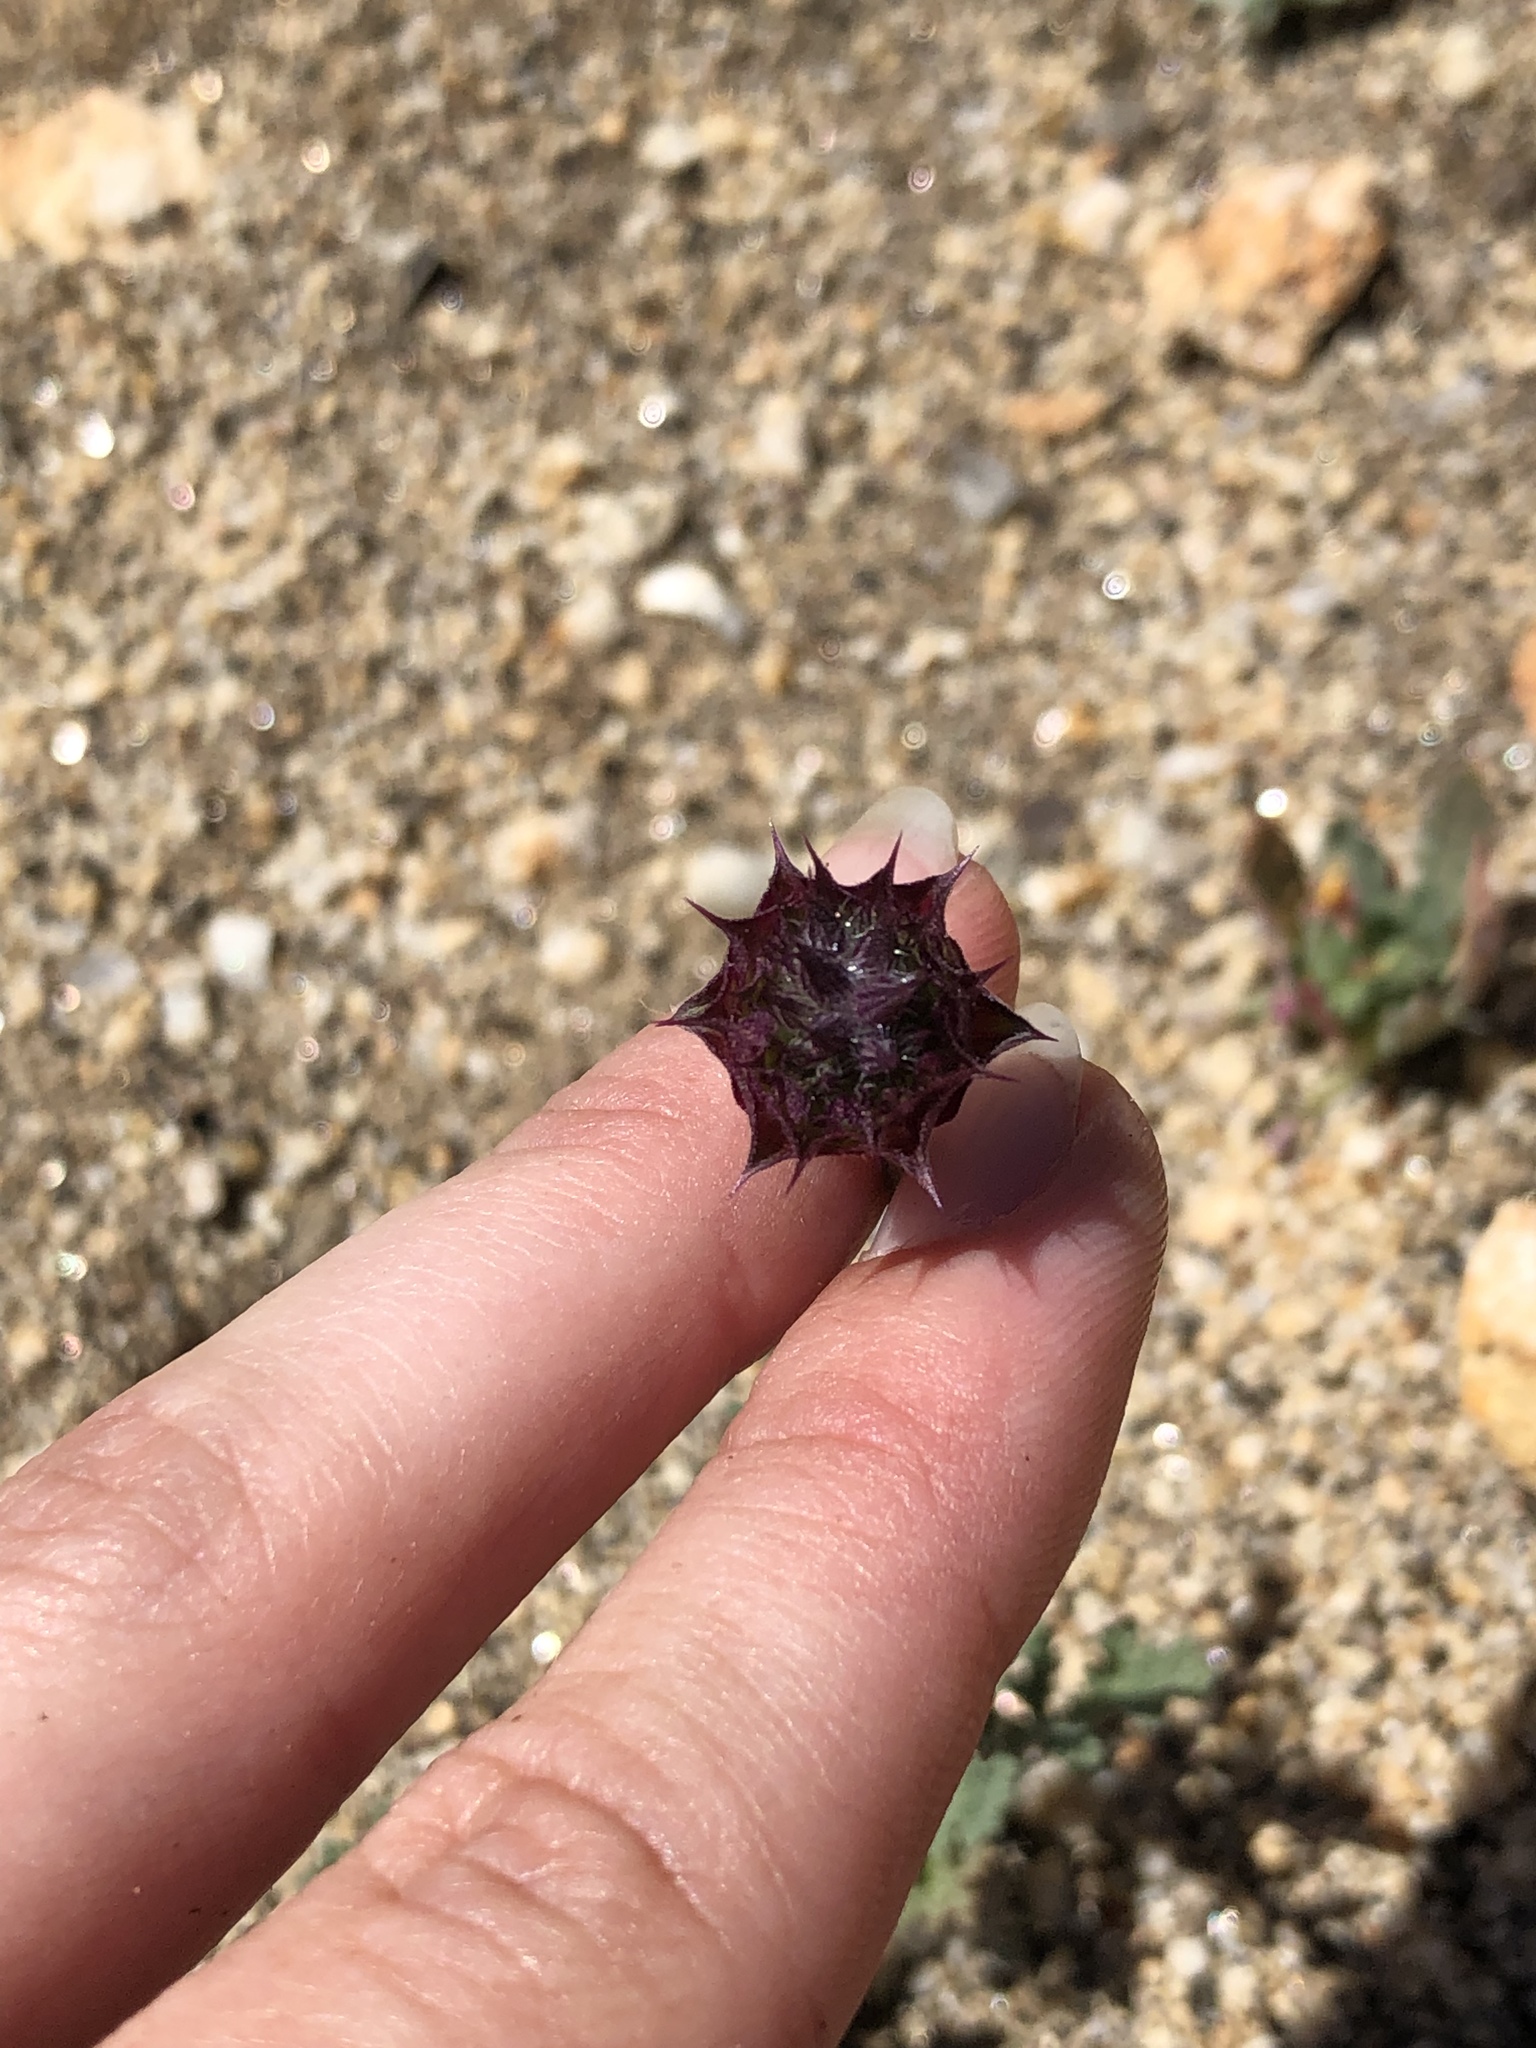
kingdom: Plantae
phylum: Tracheophyta
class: Magnoliopsida
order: Lamiales
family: Lamiaceae
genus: Salvia
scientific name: Salvia columbariae
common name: Chia
